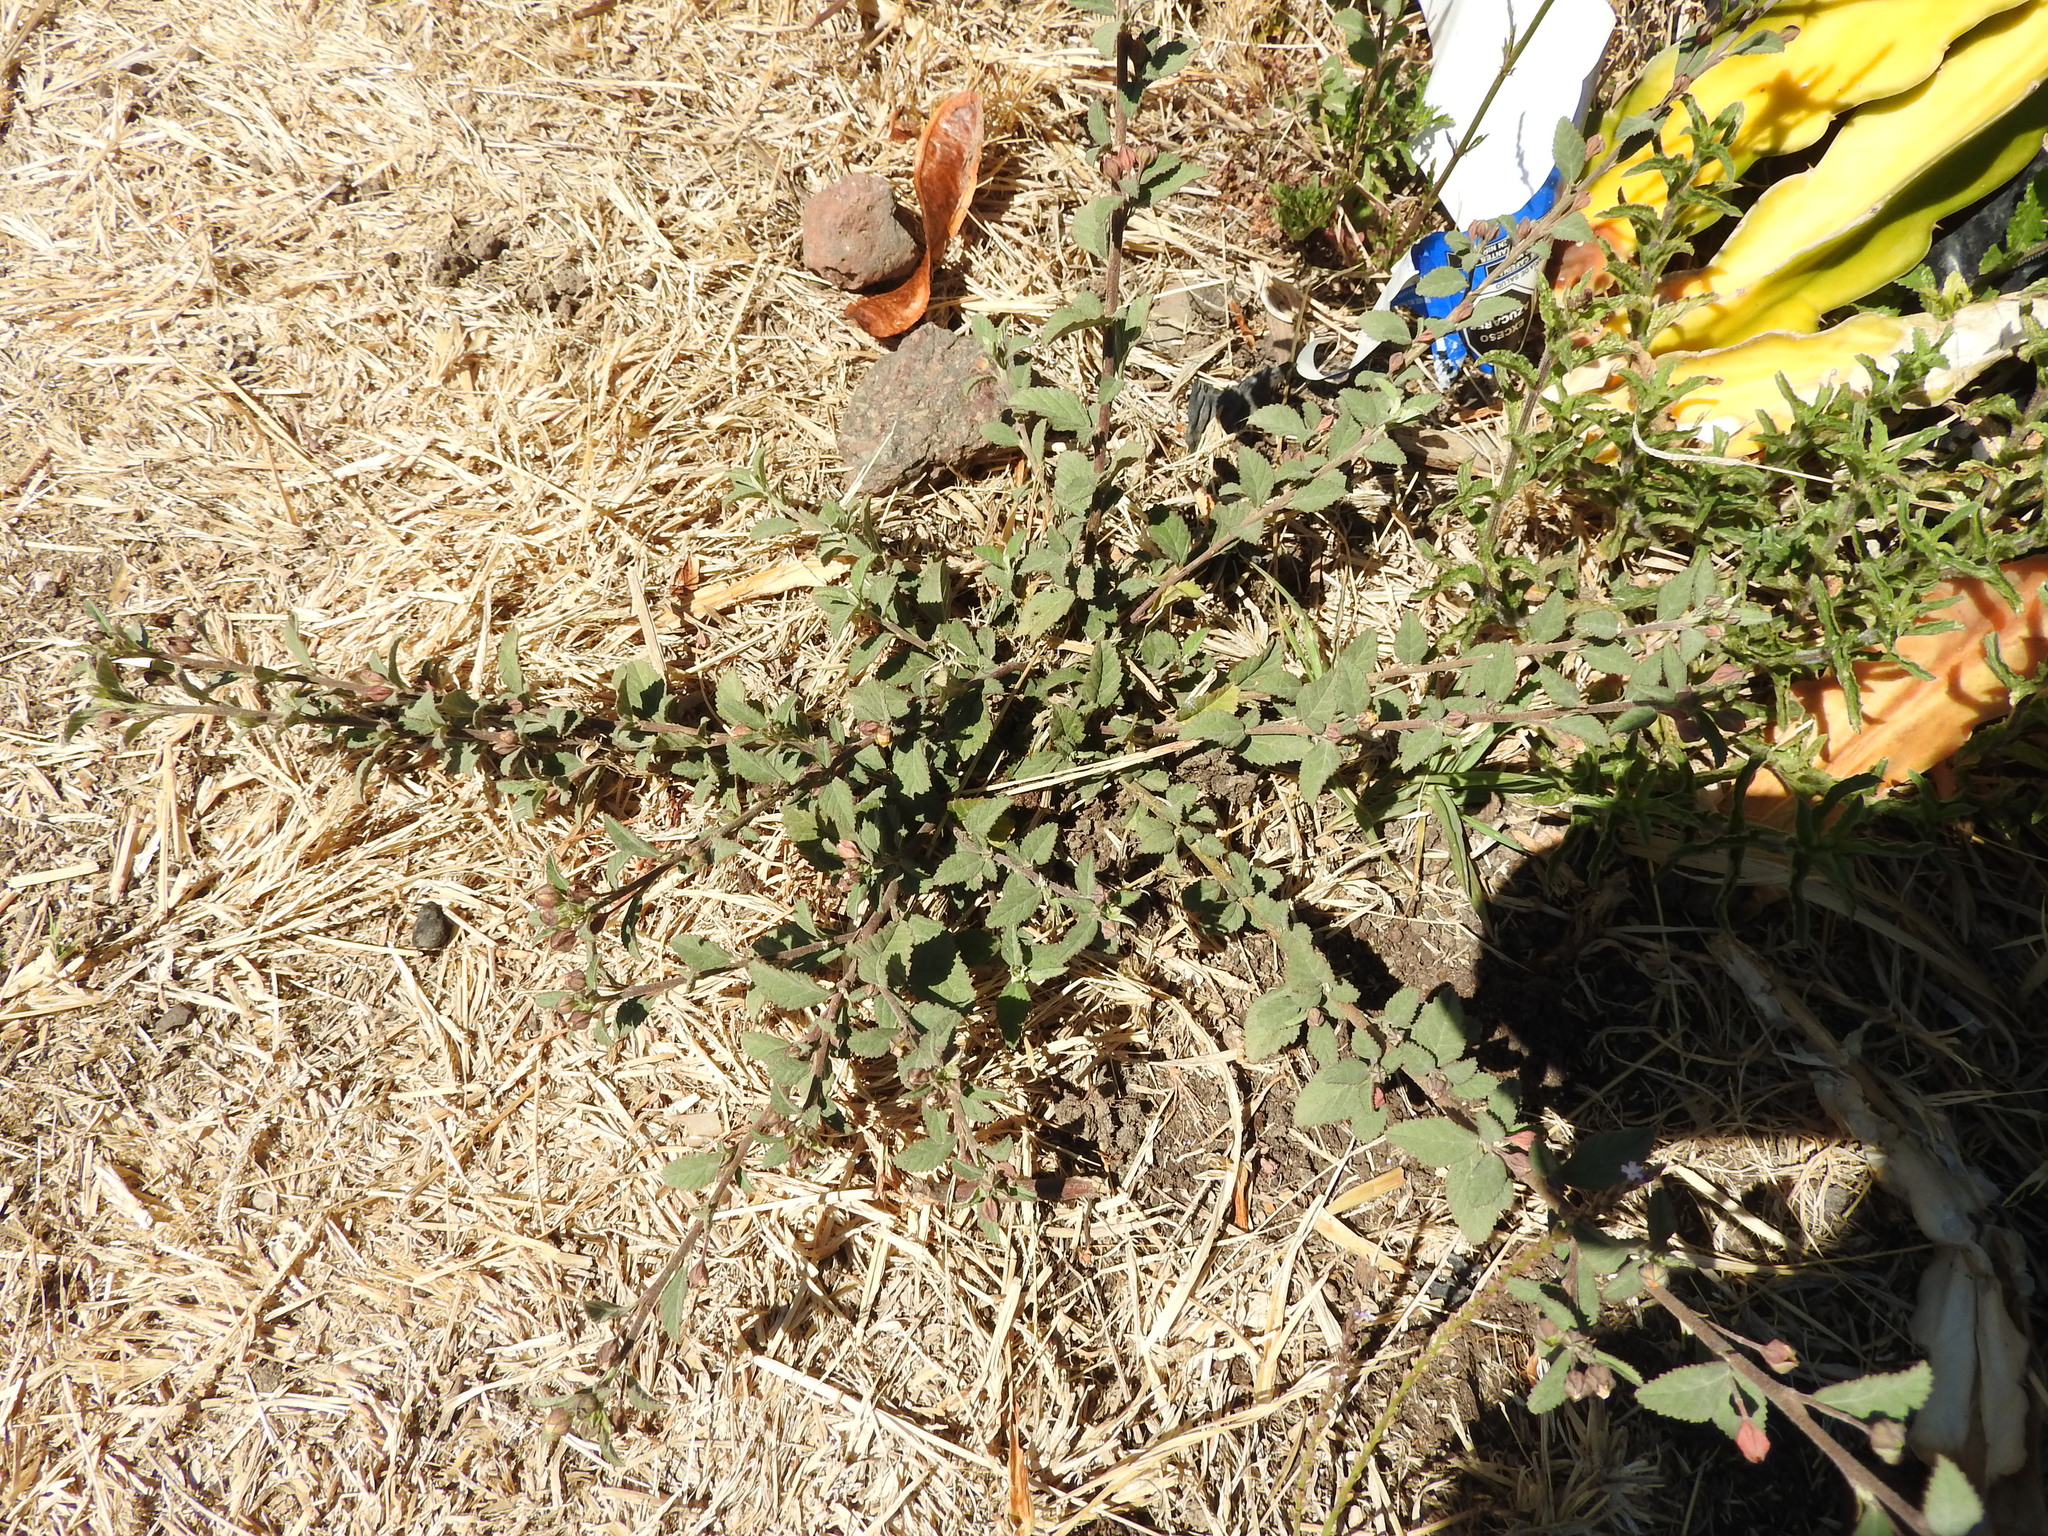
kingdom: Plantae
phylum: Tracheophyta
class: Magnoliopsida
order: Malvales
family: Malvaceae
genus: Sida
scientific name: Sida rhombifolia
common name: Queensland-hemp
